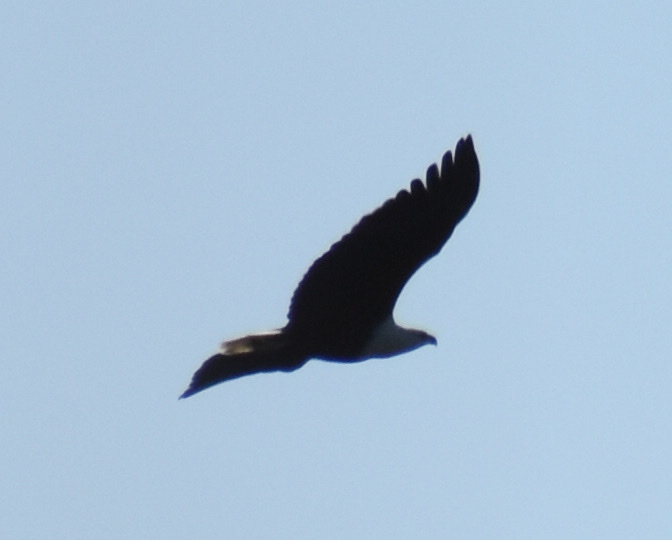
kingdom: Animalia
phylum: Chordata
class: Aves
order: Accipitriformes
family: Accipitridae
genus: Haliaeetus
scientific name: Haliaeetus vocifer
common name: African fish eagle
